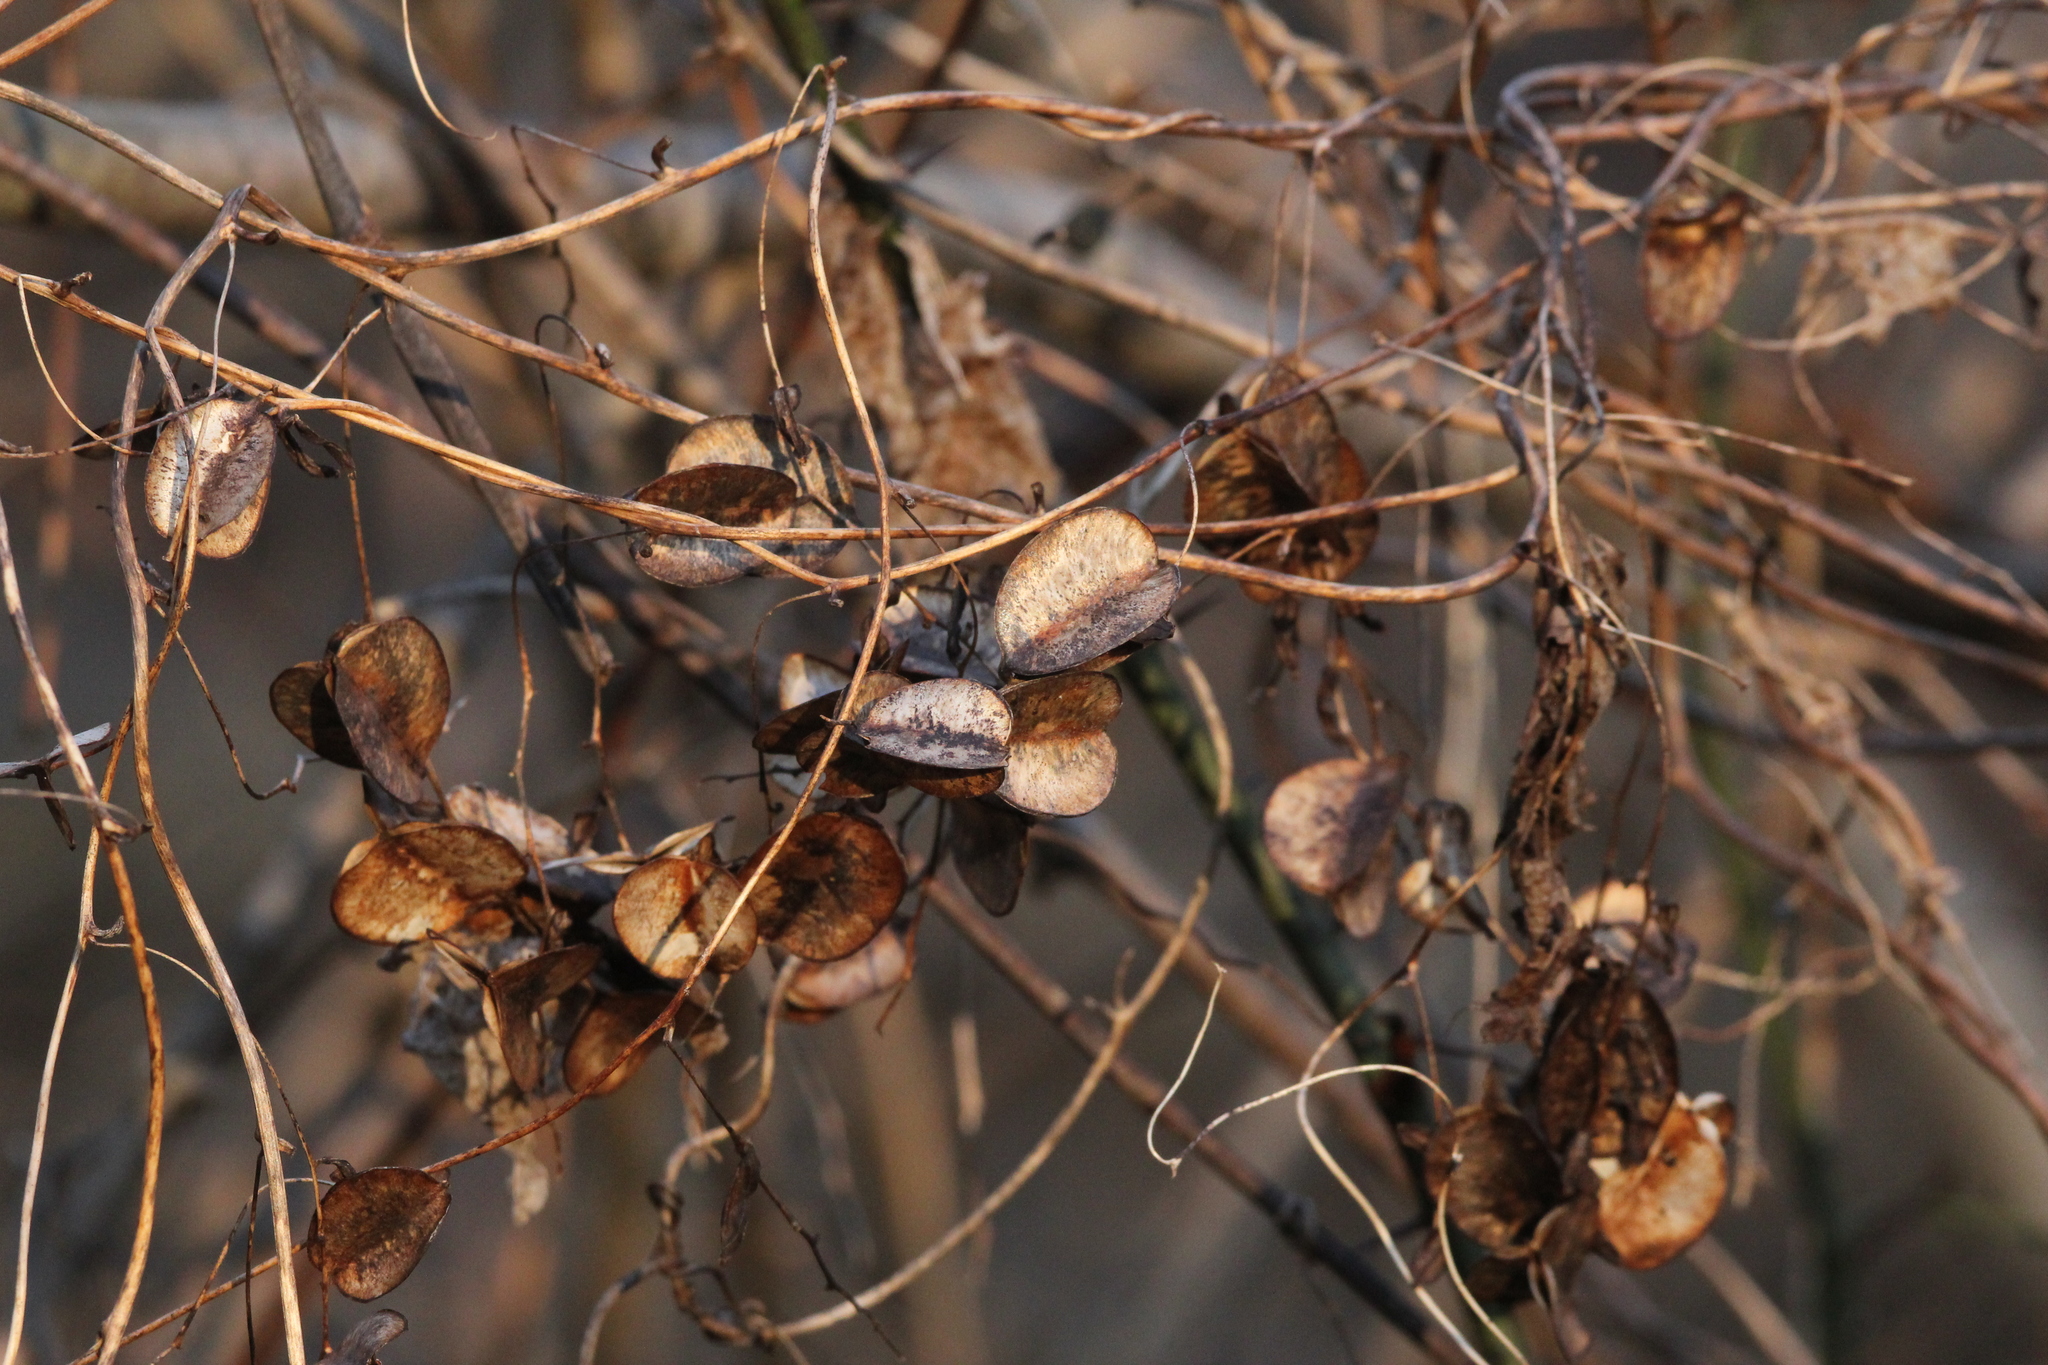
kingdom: Plantae
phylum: Tracheophyta
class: Liliopsida
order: Dioscoreales
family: Dioscoreaceae
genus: Dioscorea
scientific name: Dioscorea villosa
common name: Wild yam
